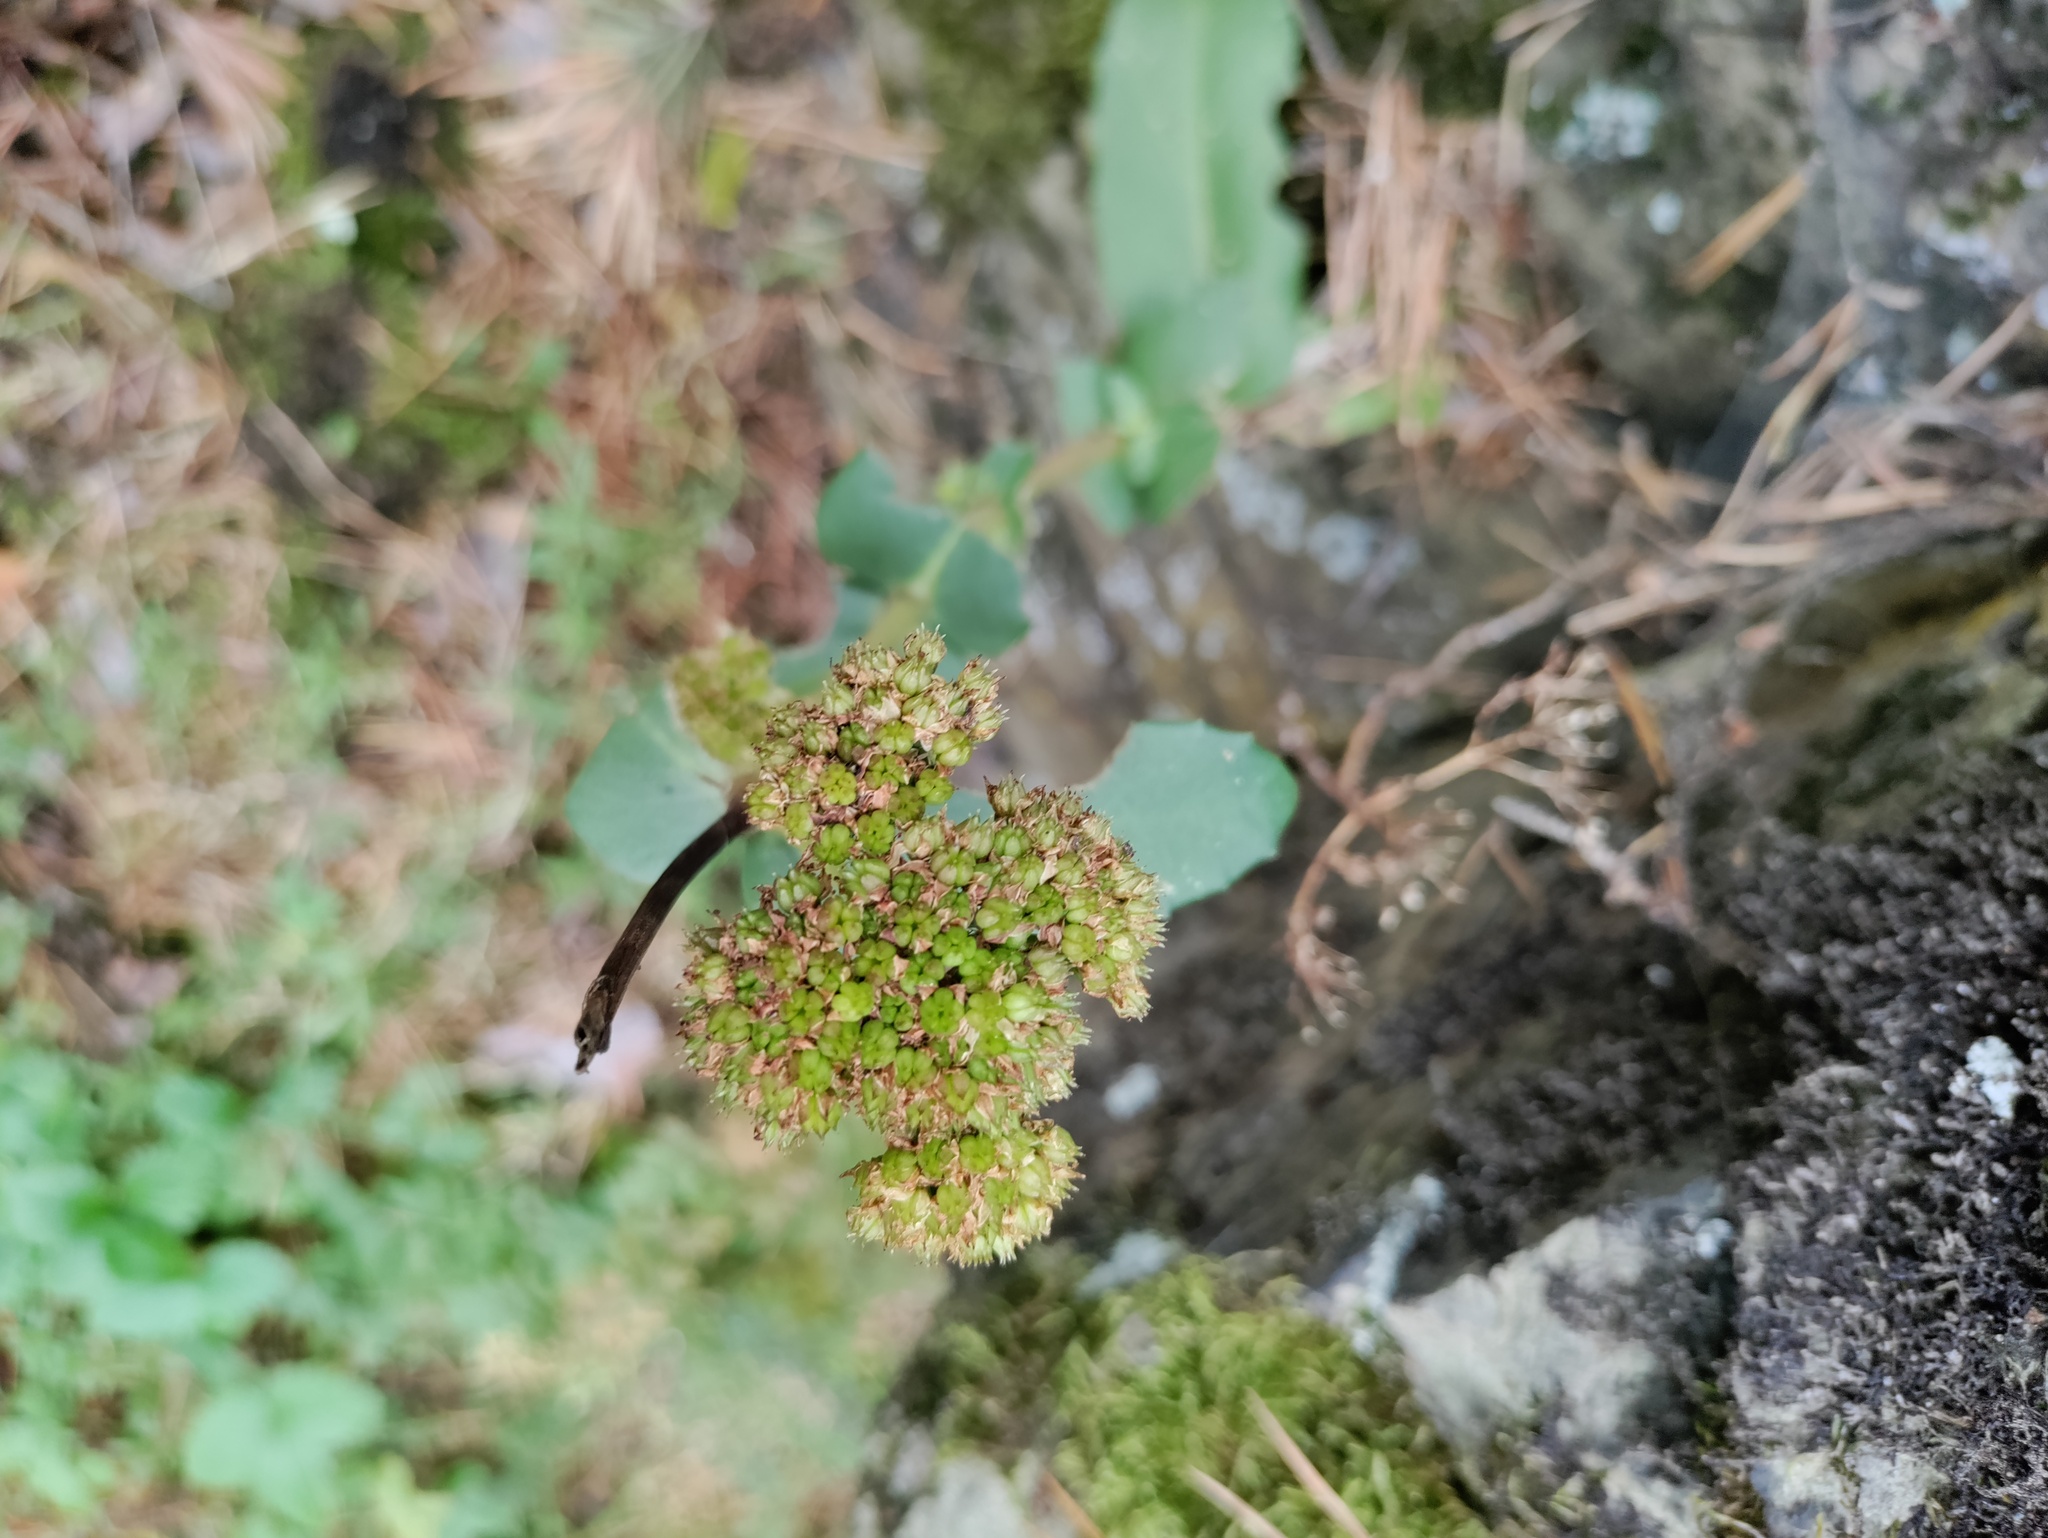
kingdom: Plantae
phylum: Tracheophyta
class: Magnoliopsida
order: Saxifragales
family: Crassulaceae
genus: Hylotelephium
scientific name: Hylotelephium maximum
